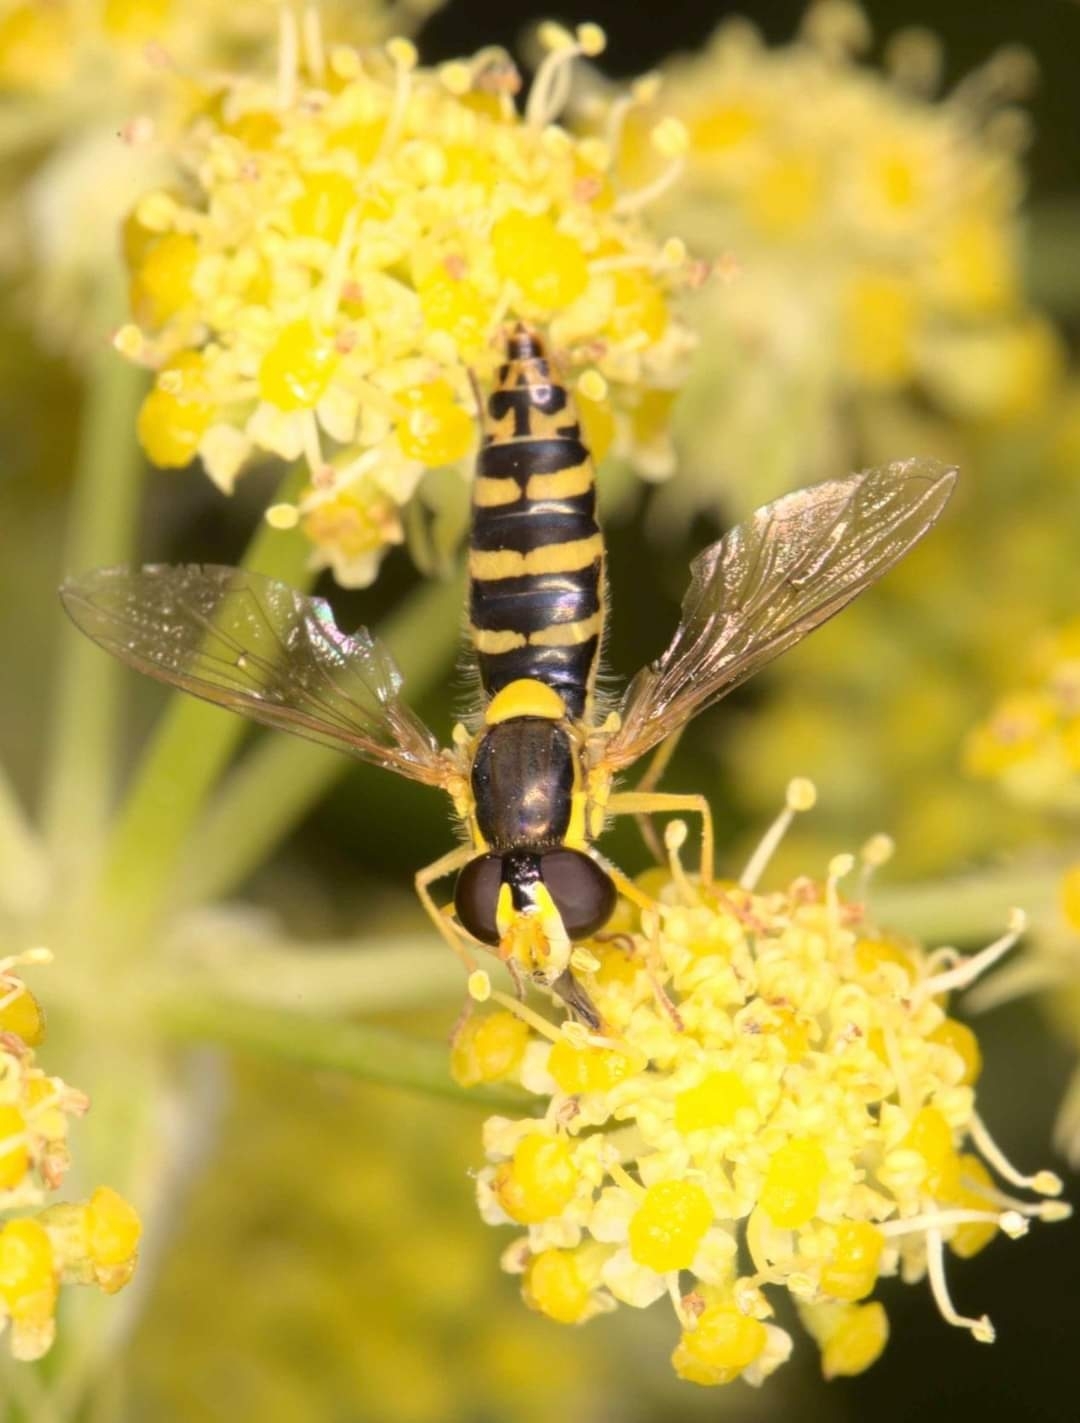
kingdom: Animalia
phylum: Arthropoda
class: Insecta
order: Diptera
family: Syrphidae
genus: Sphaerophoria
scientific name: Sphaerophoria
